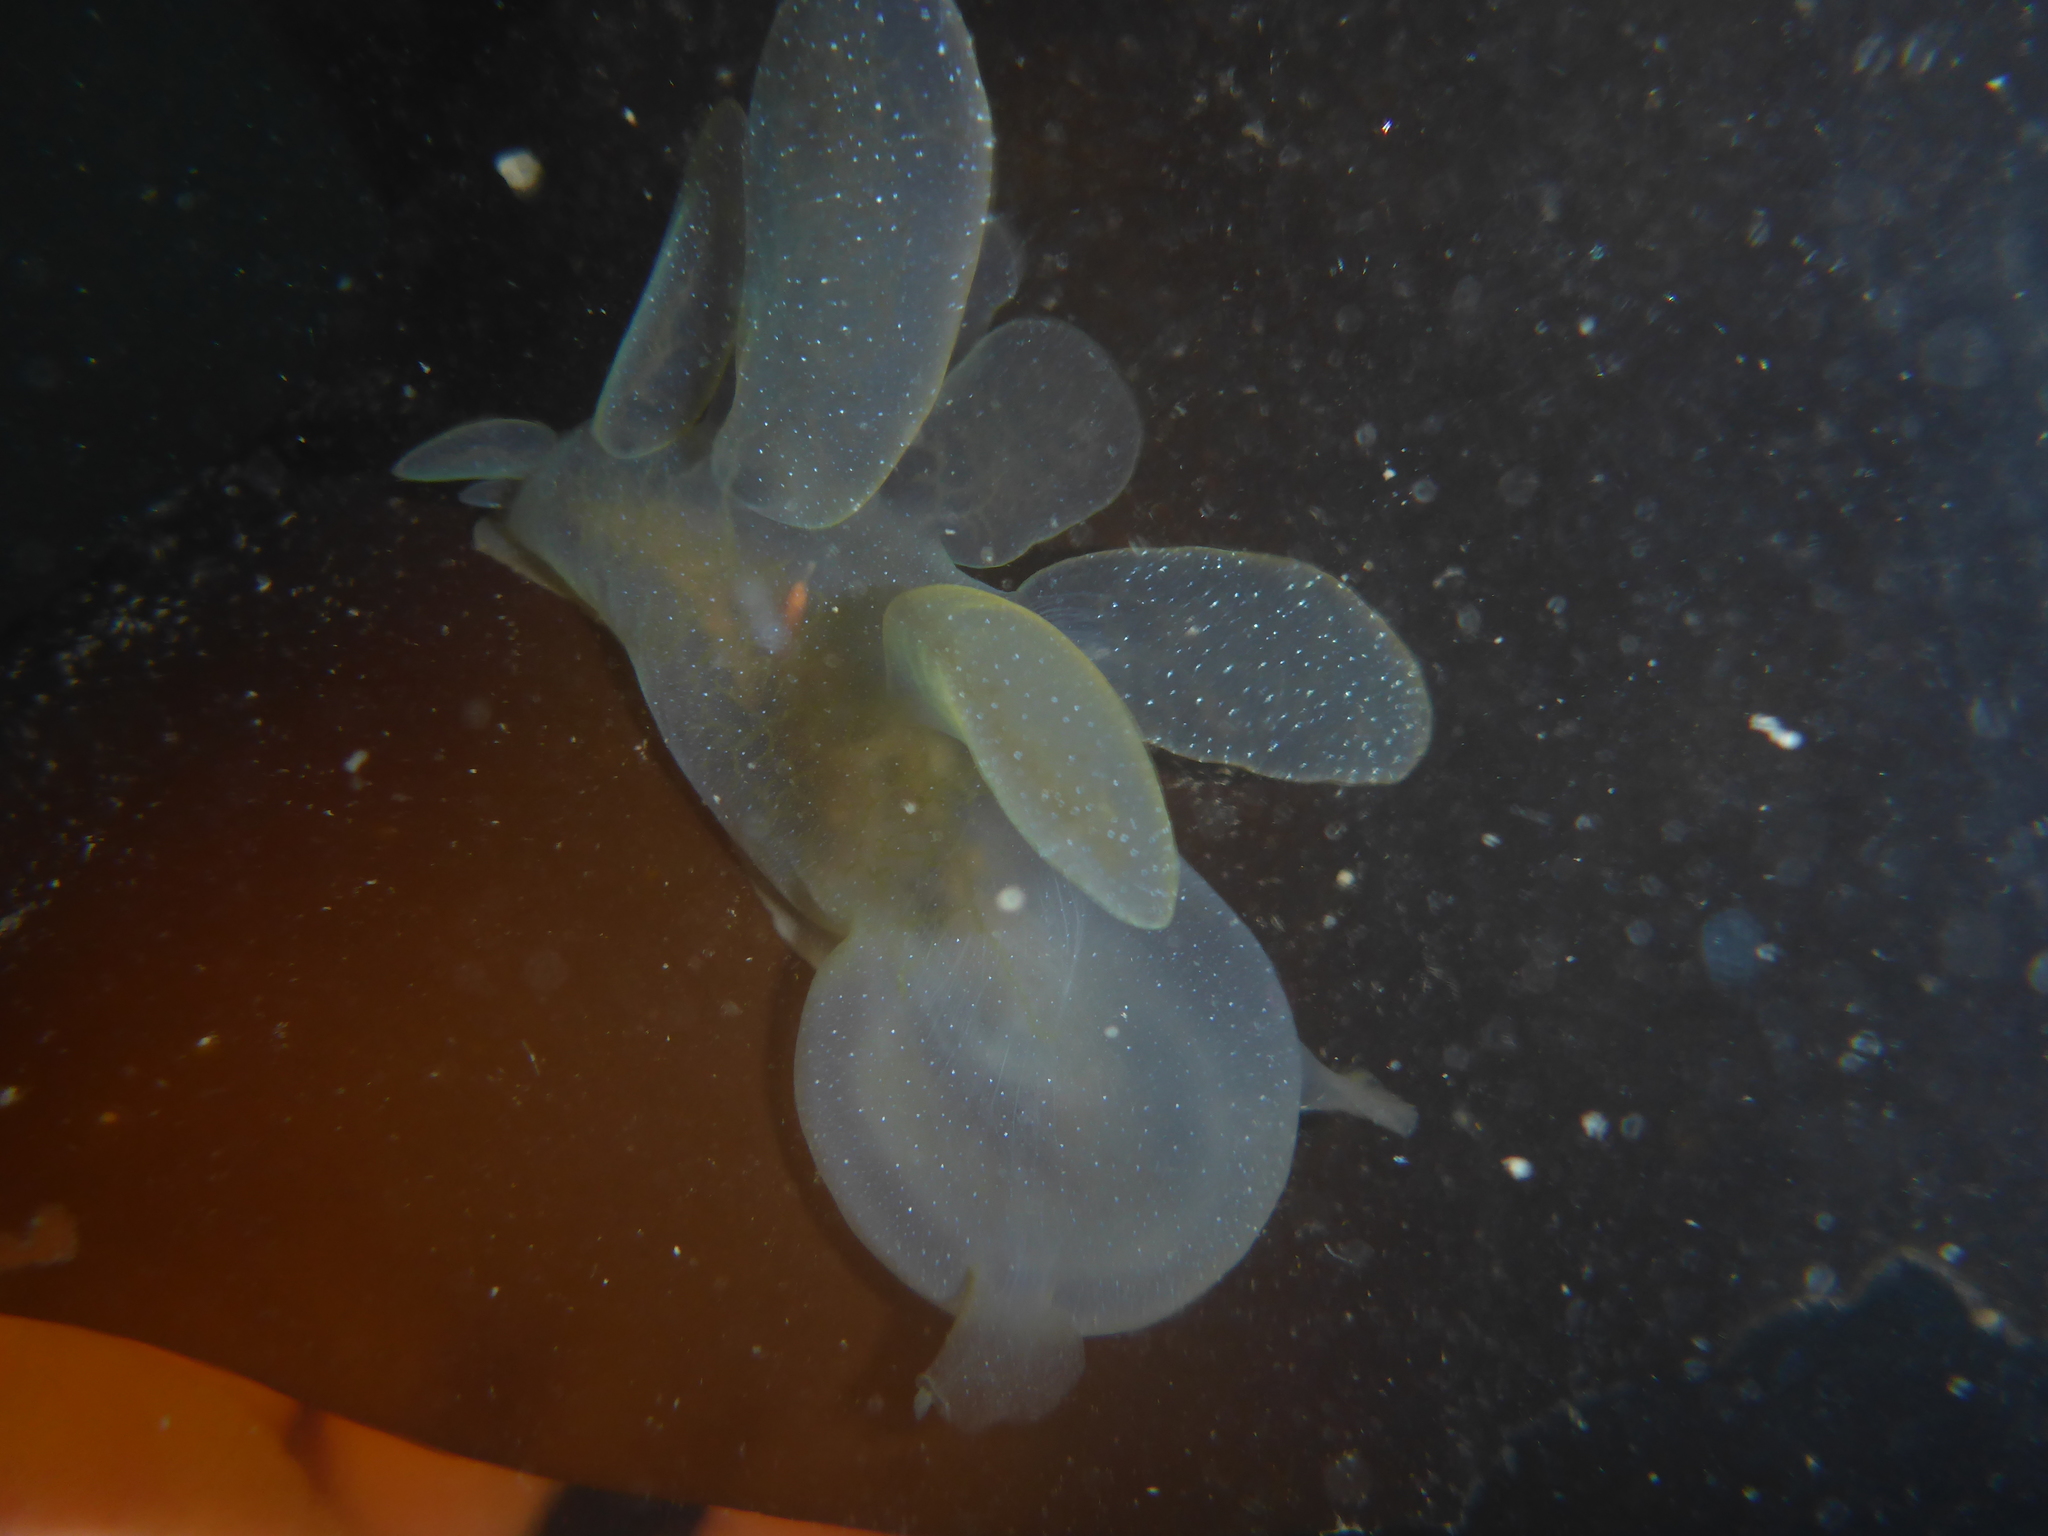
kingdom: Animalia
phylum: Mollusca
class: Gastropoda
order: Nudibranchia
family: Tethydidae
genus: Melibe
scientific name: Melibe leonina
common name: Lion nudibranch
